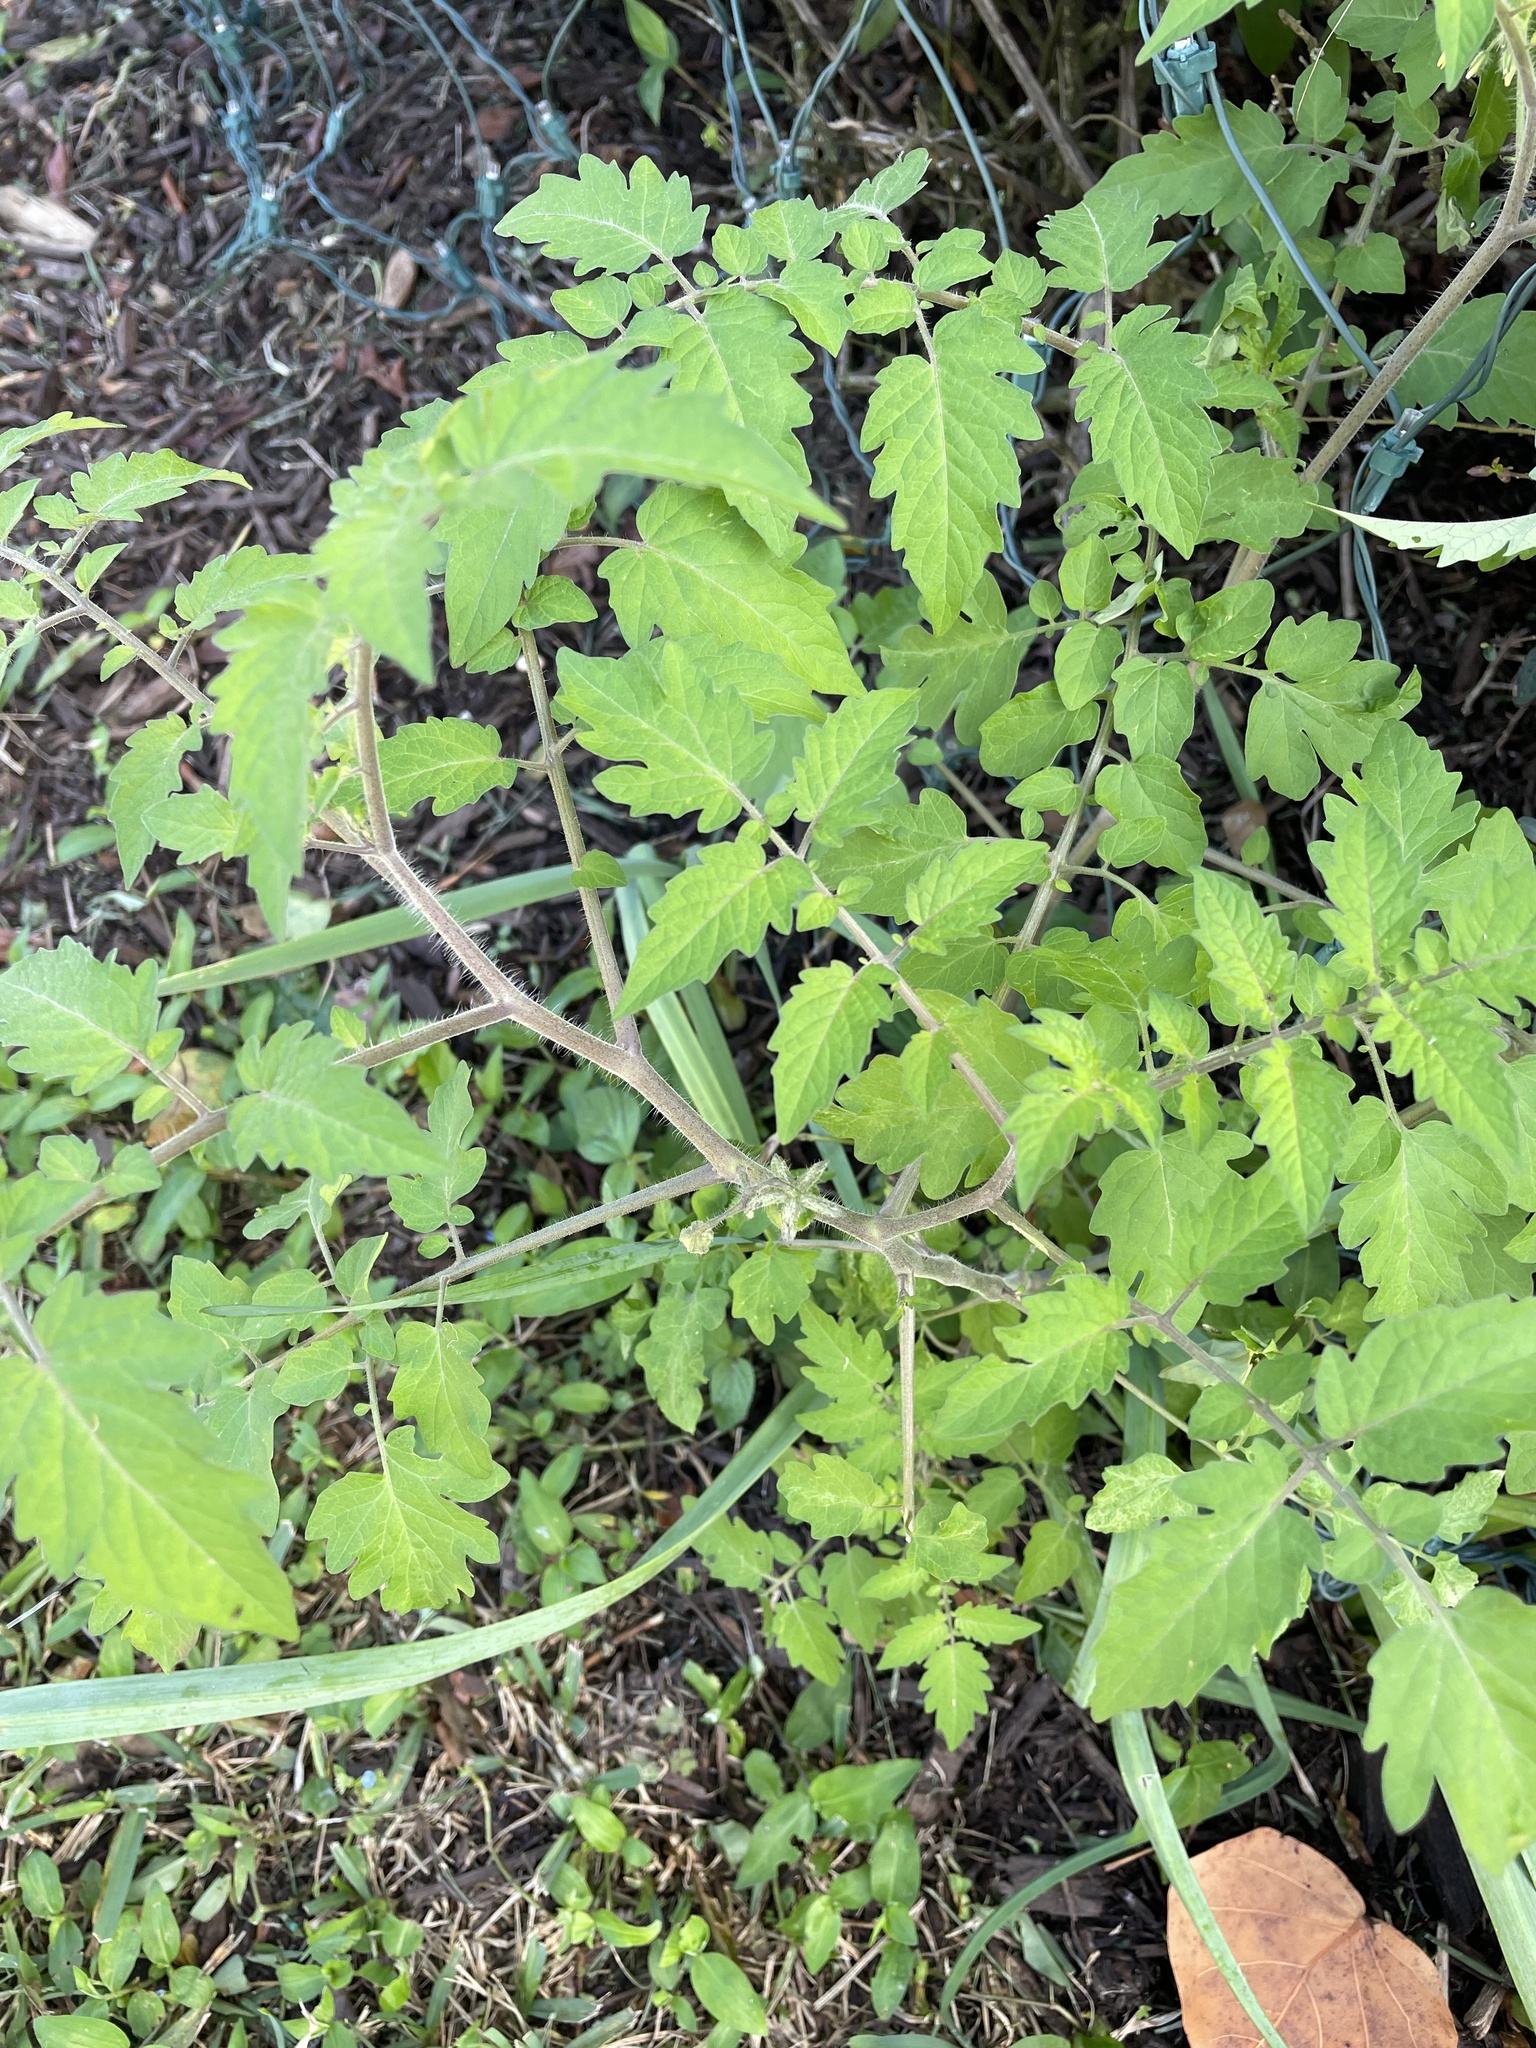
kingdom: Plantae
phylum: Tracheophyta
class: Magnoliopsida
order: Solanales
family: Solanaceae
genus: Solanum
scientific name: Solanum lycopersicum
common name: Garden tomato
